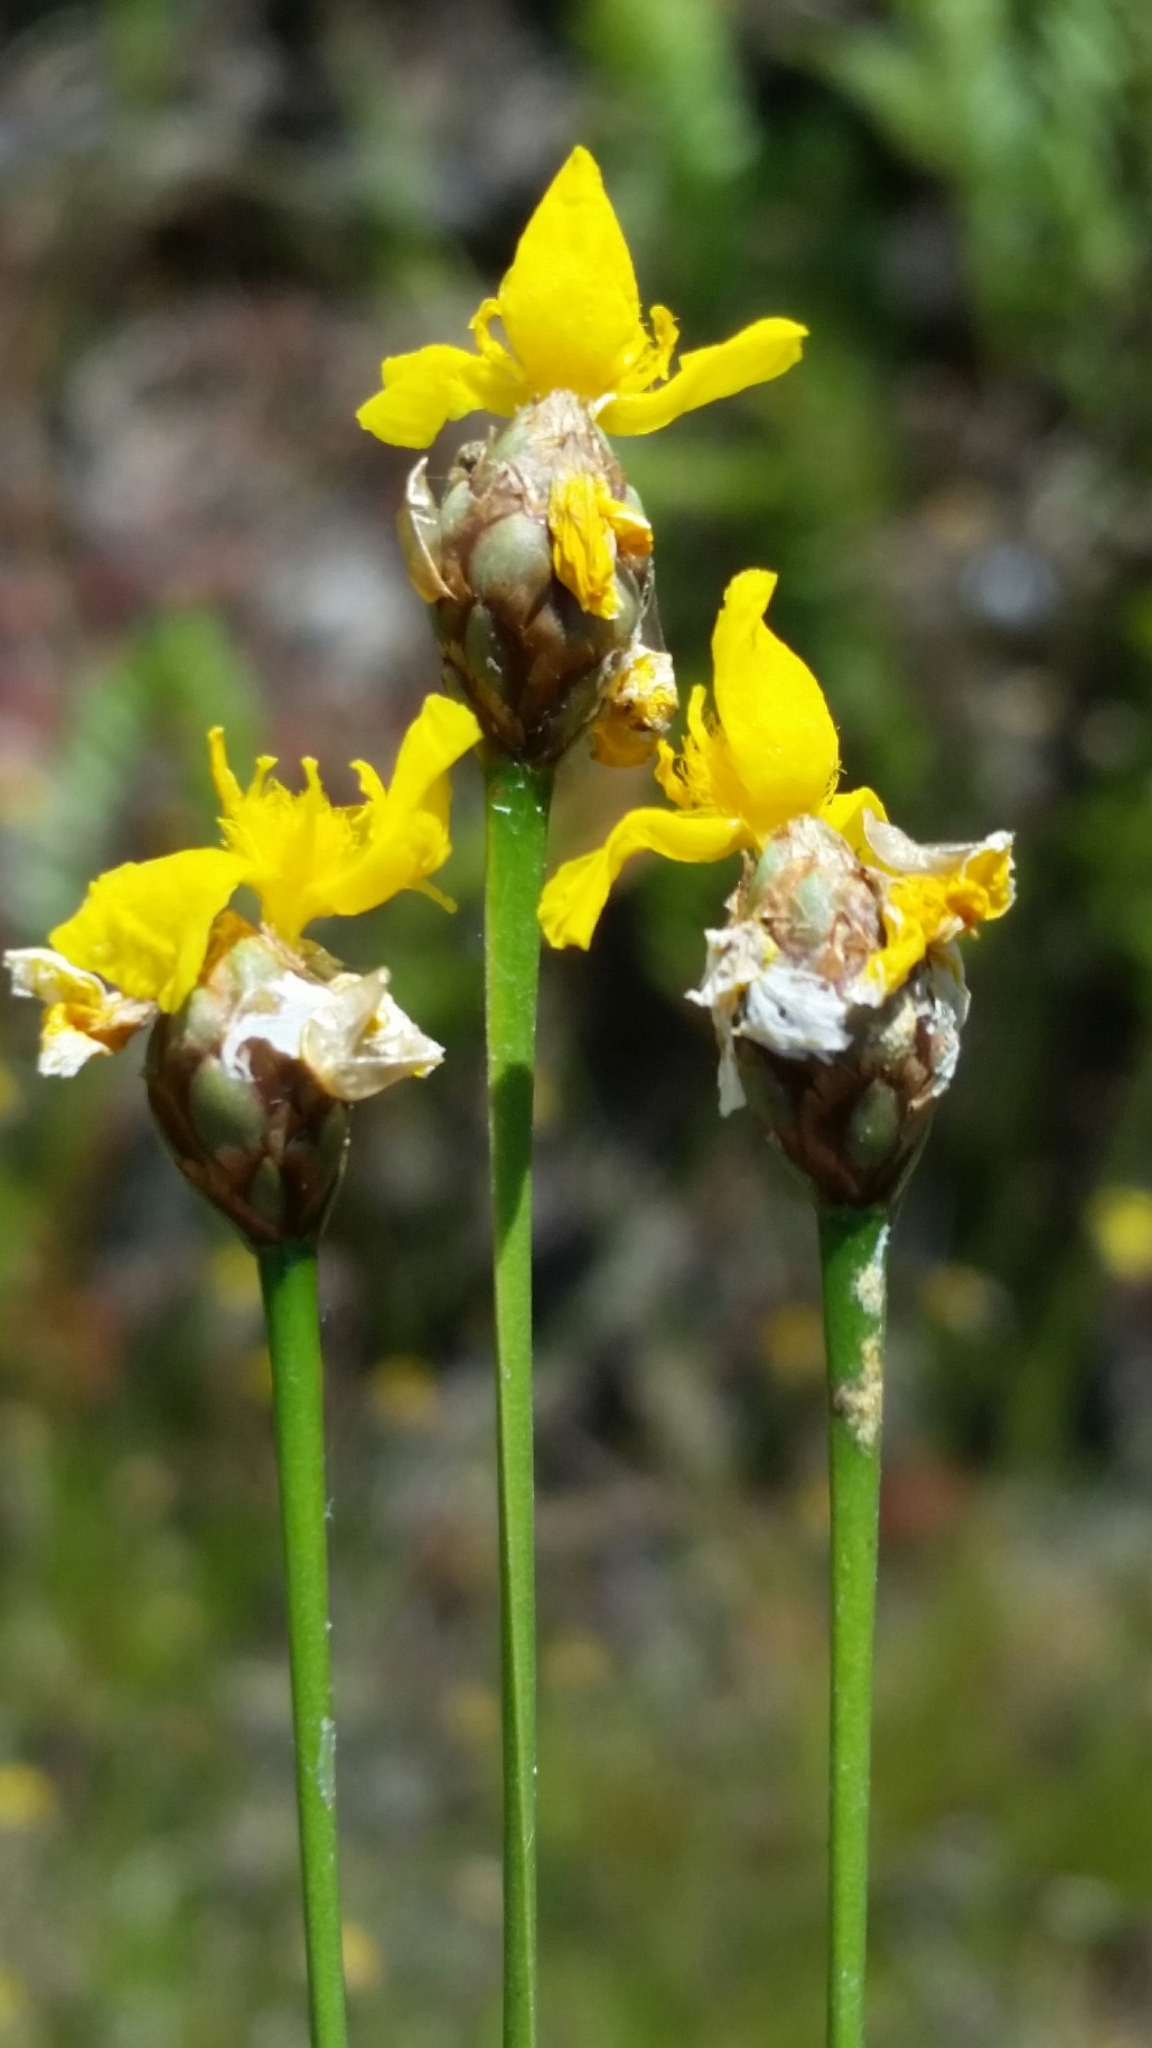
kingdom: Plantae
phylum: Tracheophyta
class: Liliopsida
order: Poales
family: Xyridaceae
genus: Xyris
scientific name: Xyris elliottii
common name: Elliot's yelloweyed grass
